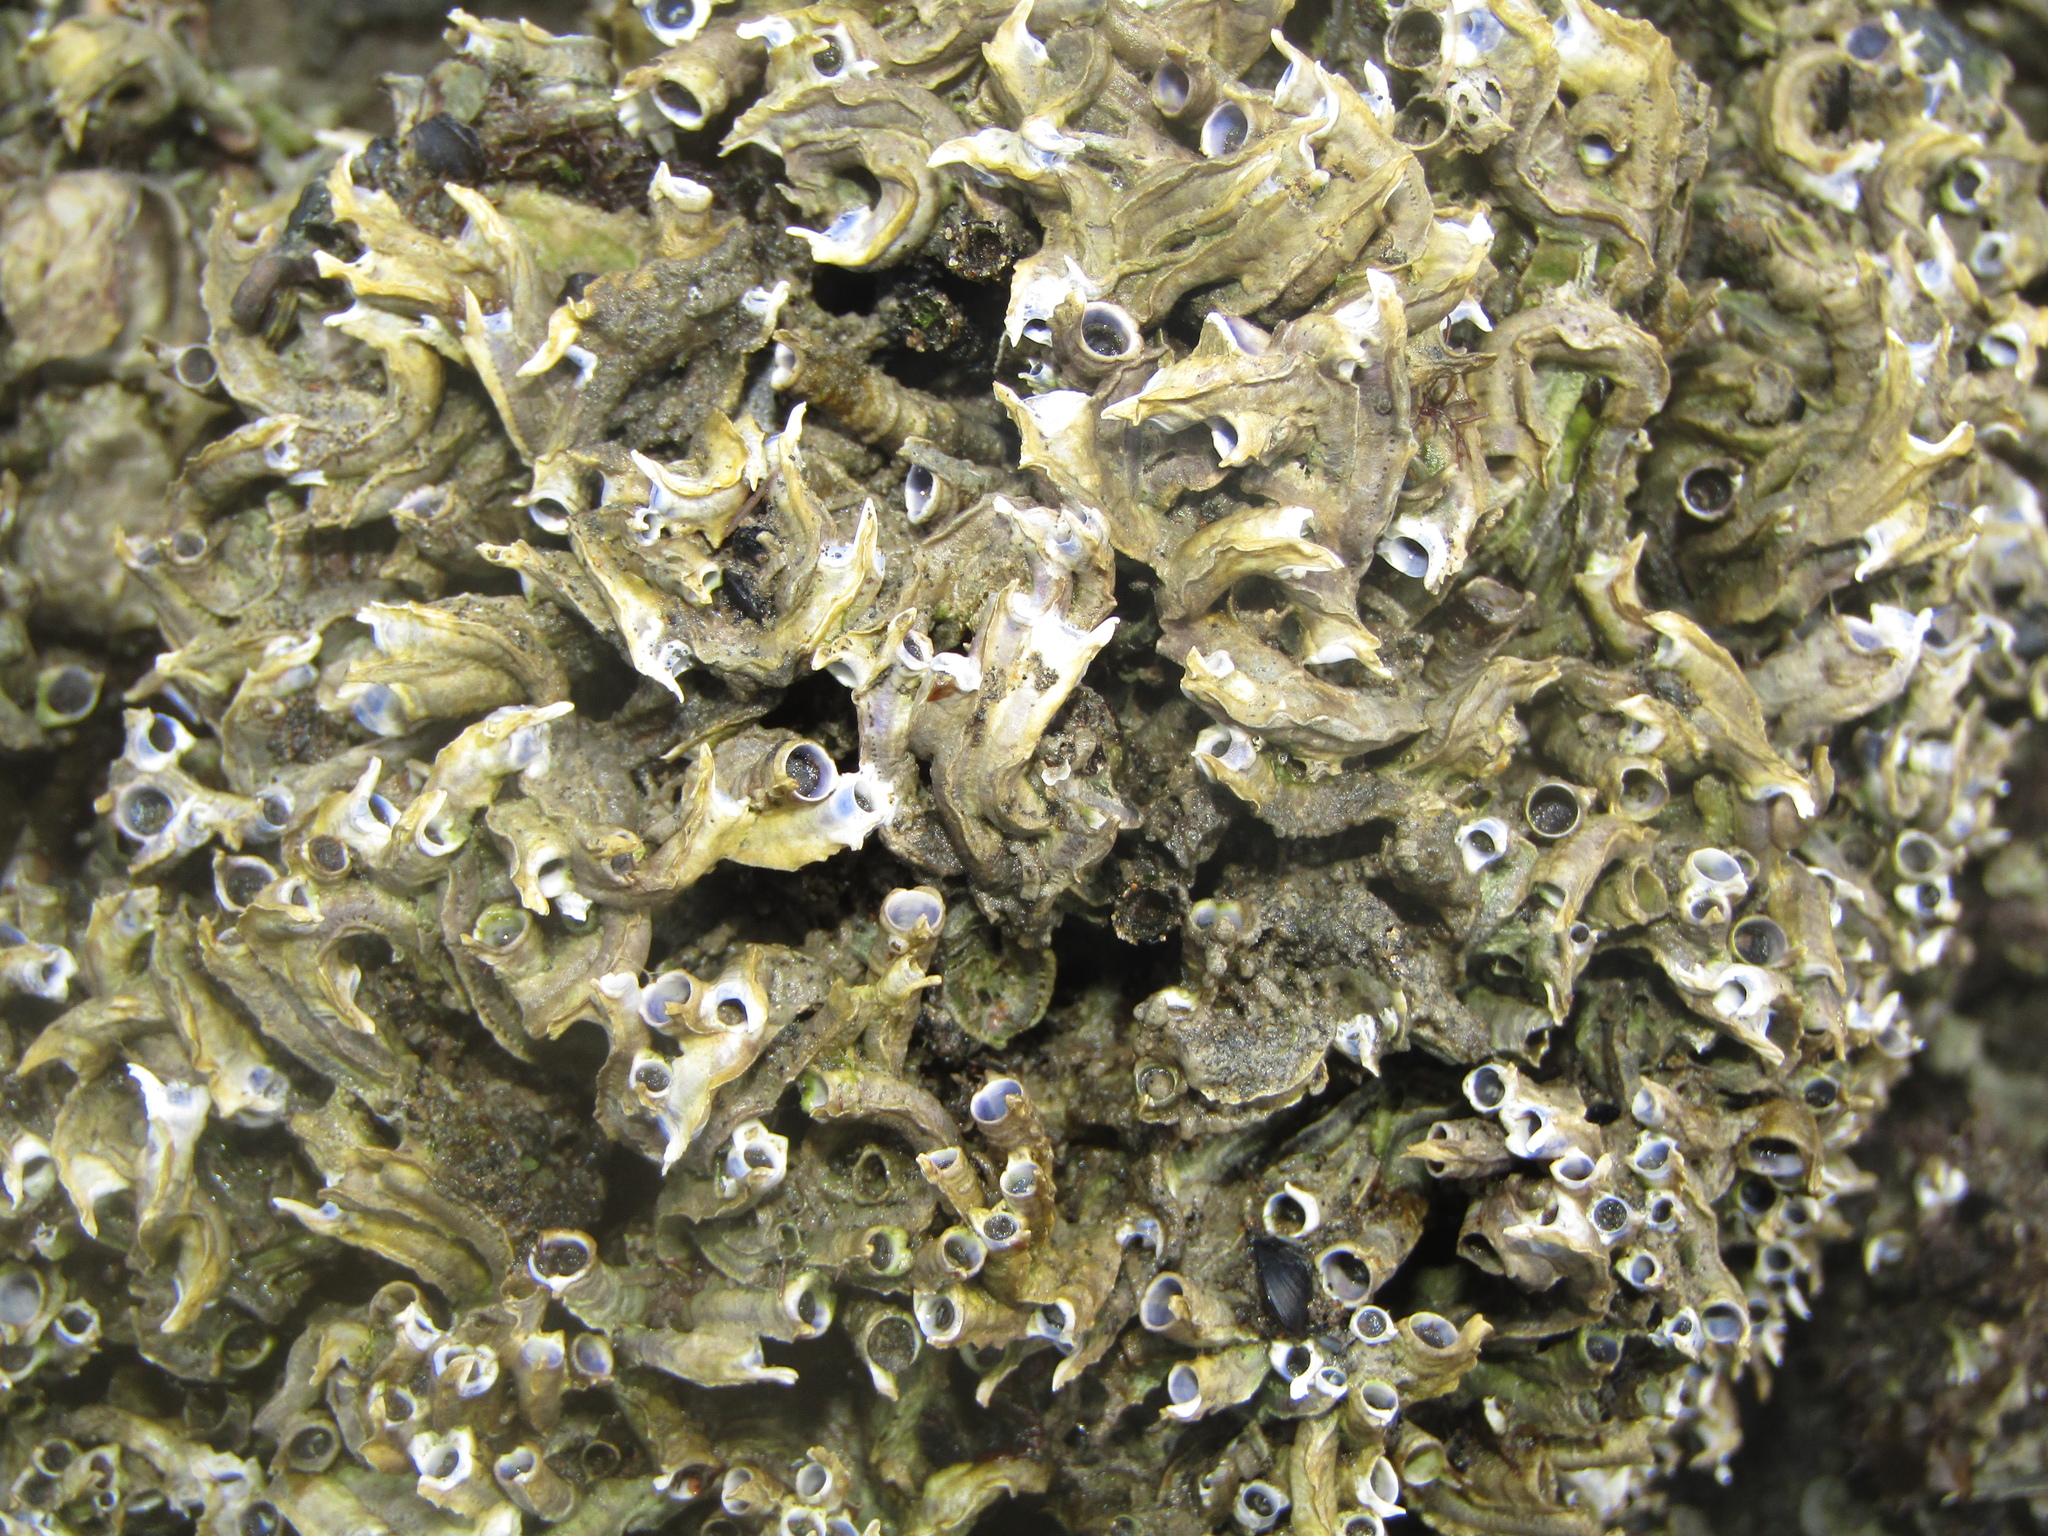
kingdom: Animalia
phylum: Annelida
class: Polychaeta
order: Sabellida
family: Serpulidae
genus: Spirobranchus
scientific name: Spirobranchus cariniferus
